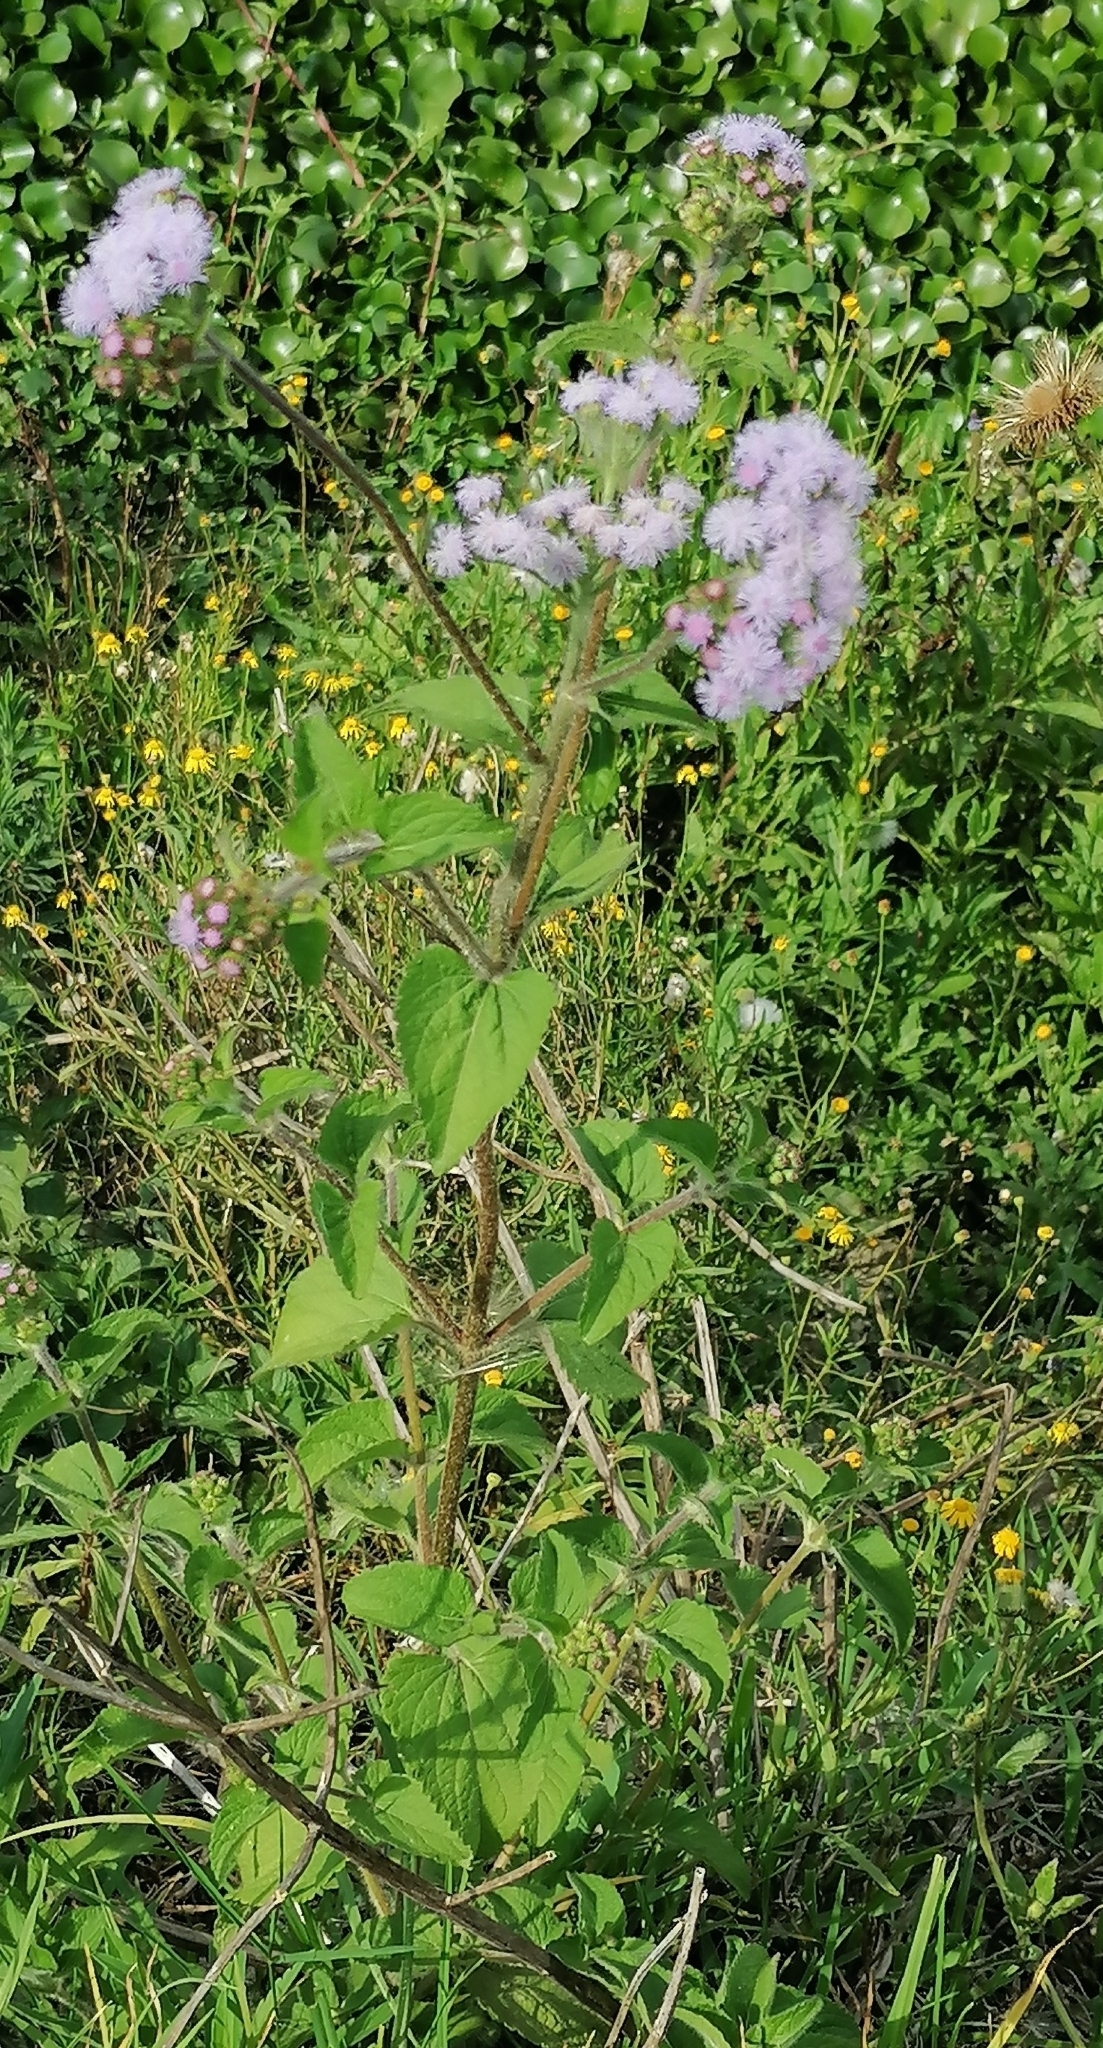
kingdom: Plantae
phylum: Tracheophyta
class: Magnoliopsida
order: Asterales
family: Asteraceae
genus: Ageratum
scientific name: Ageratum conyzoides
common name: Tropical whiteweed
